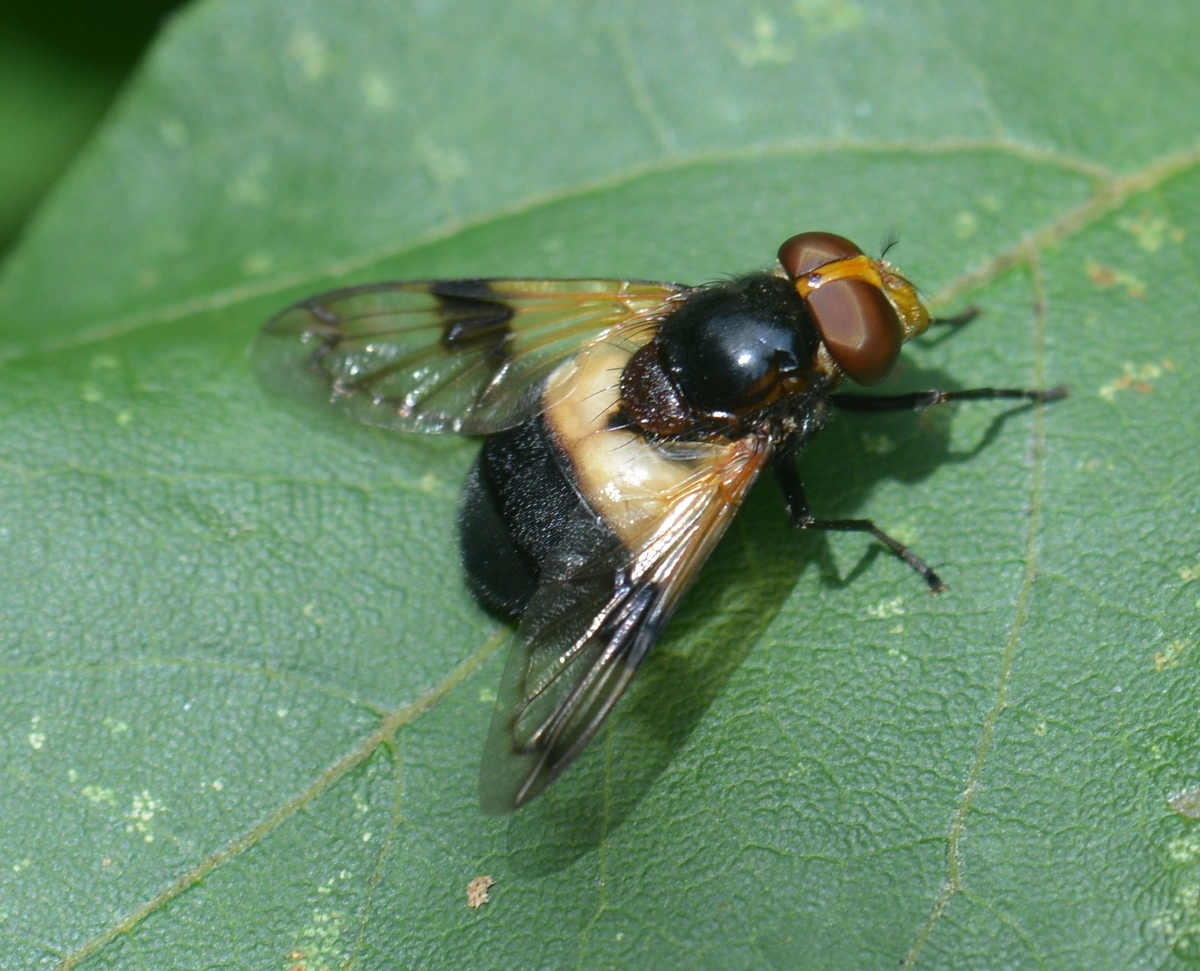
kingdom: Animalia
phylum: Arthropoda
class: Insecta
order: Diptera
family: Syrphidae
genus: Volucella
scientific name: Volucella pellucens
